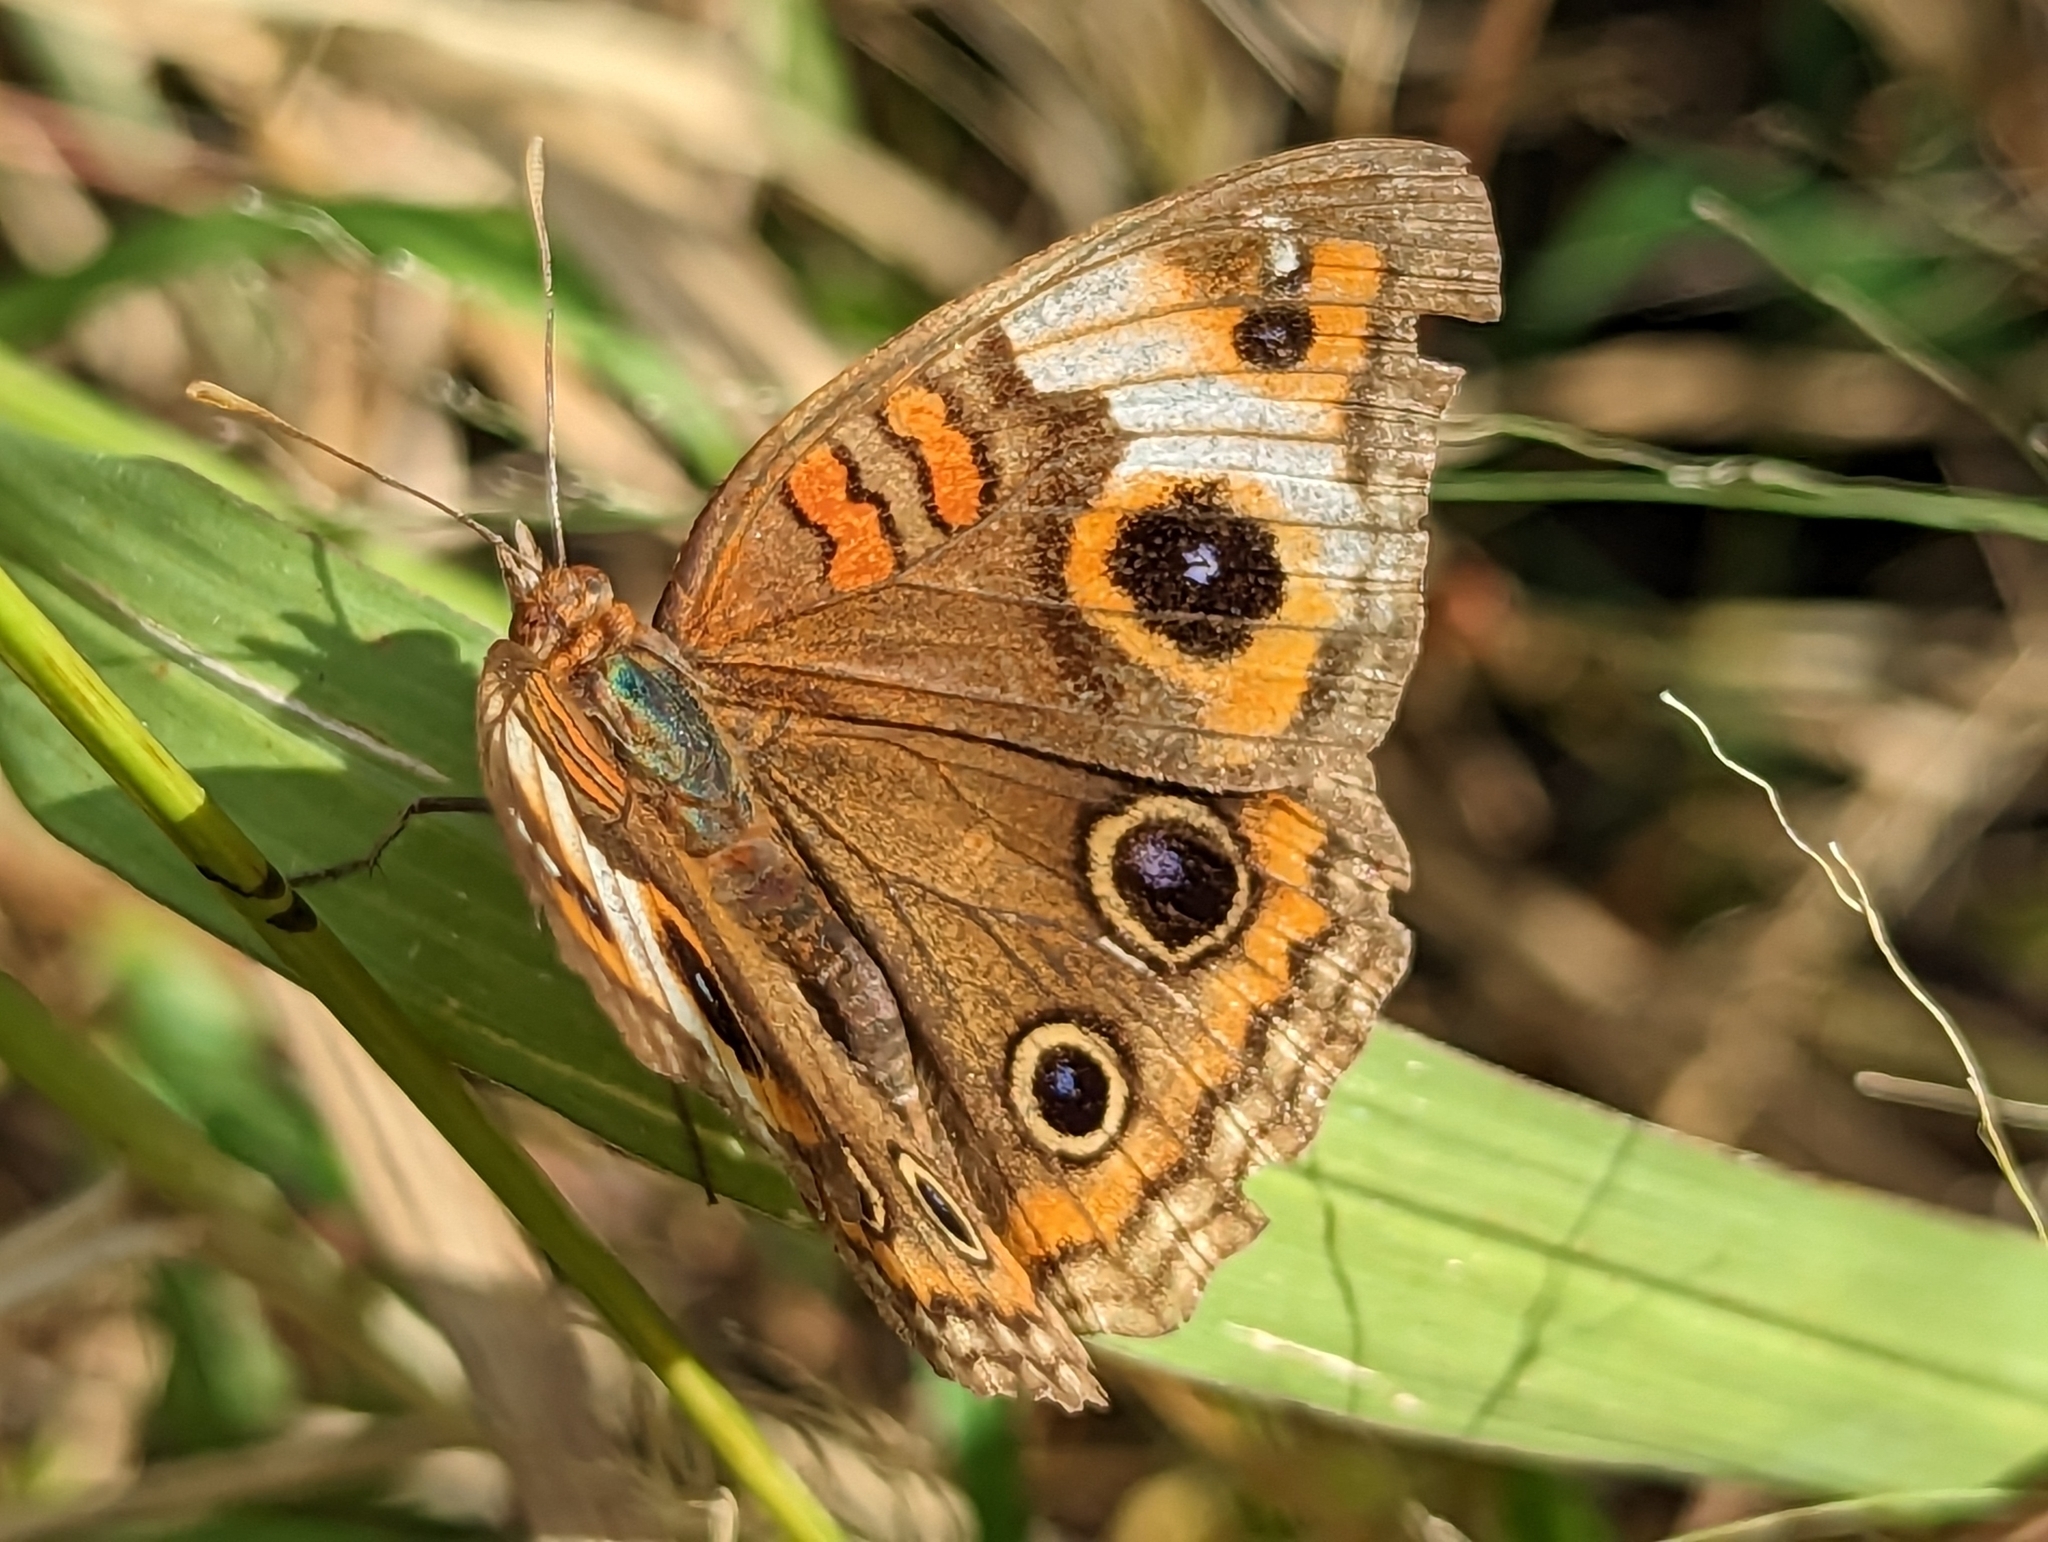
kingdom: Animalia
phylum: Arthropoda
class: Insecta
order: Lepidoptera
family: Nymphalidae
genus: Junonia
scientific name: Junonia lavinia
